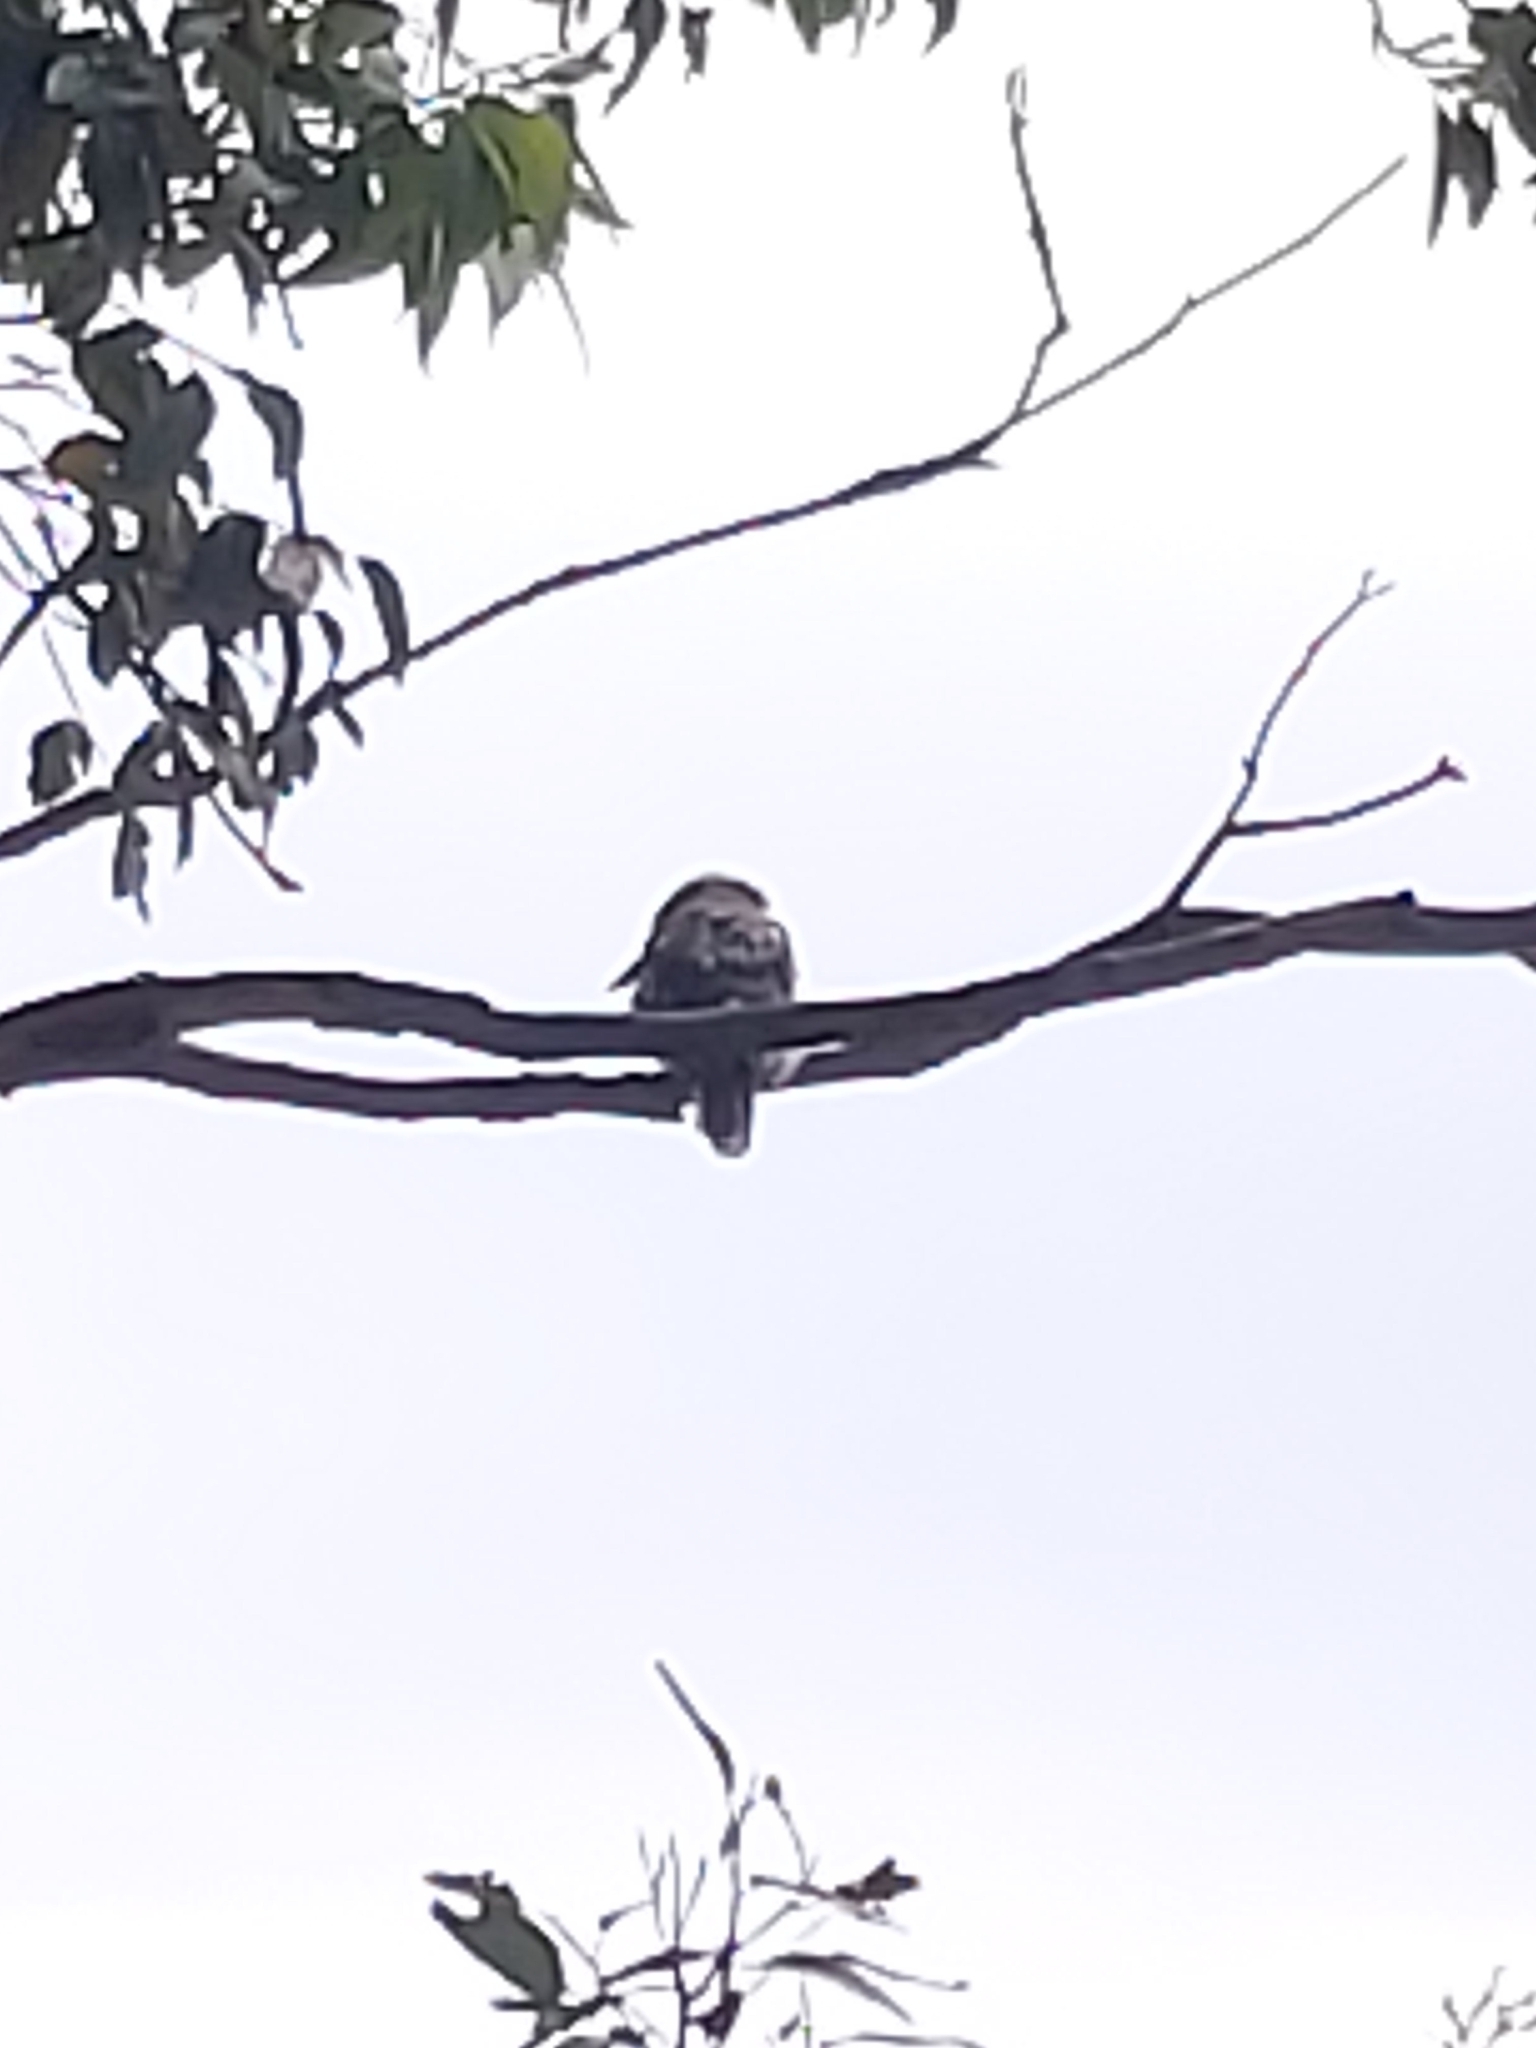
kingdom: Animalia
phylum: Chordata
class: Aves
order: Coraciiformes
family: Alcedinidae
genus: Dacelo
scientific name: Dacelo novaeguineae
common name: Laughing kookaburra
